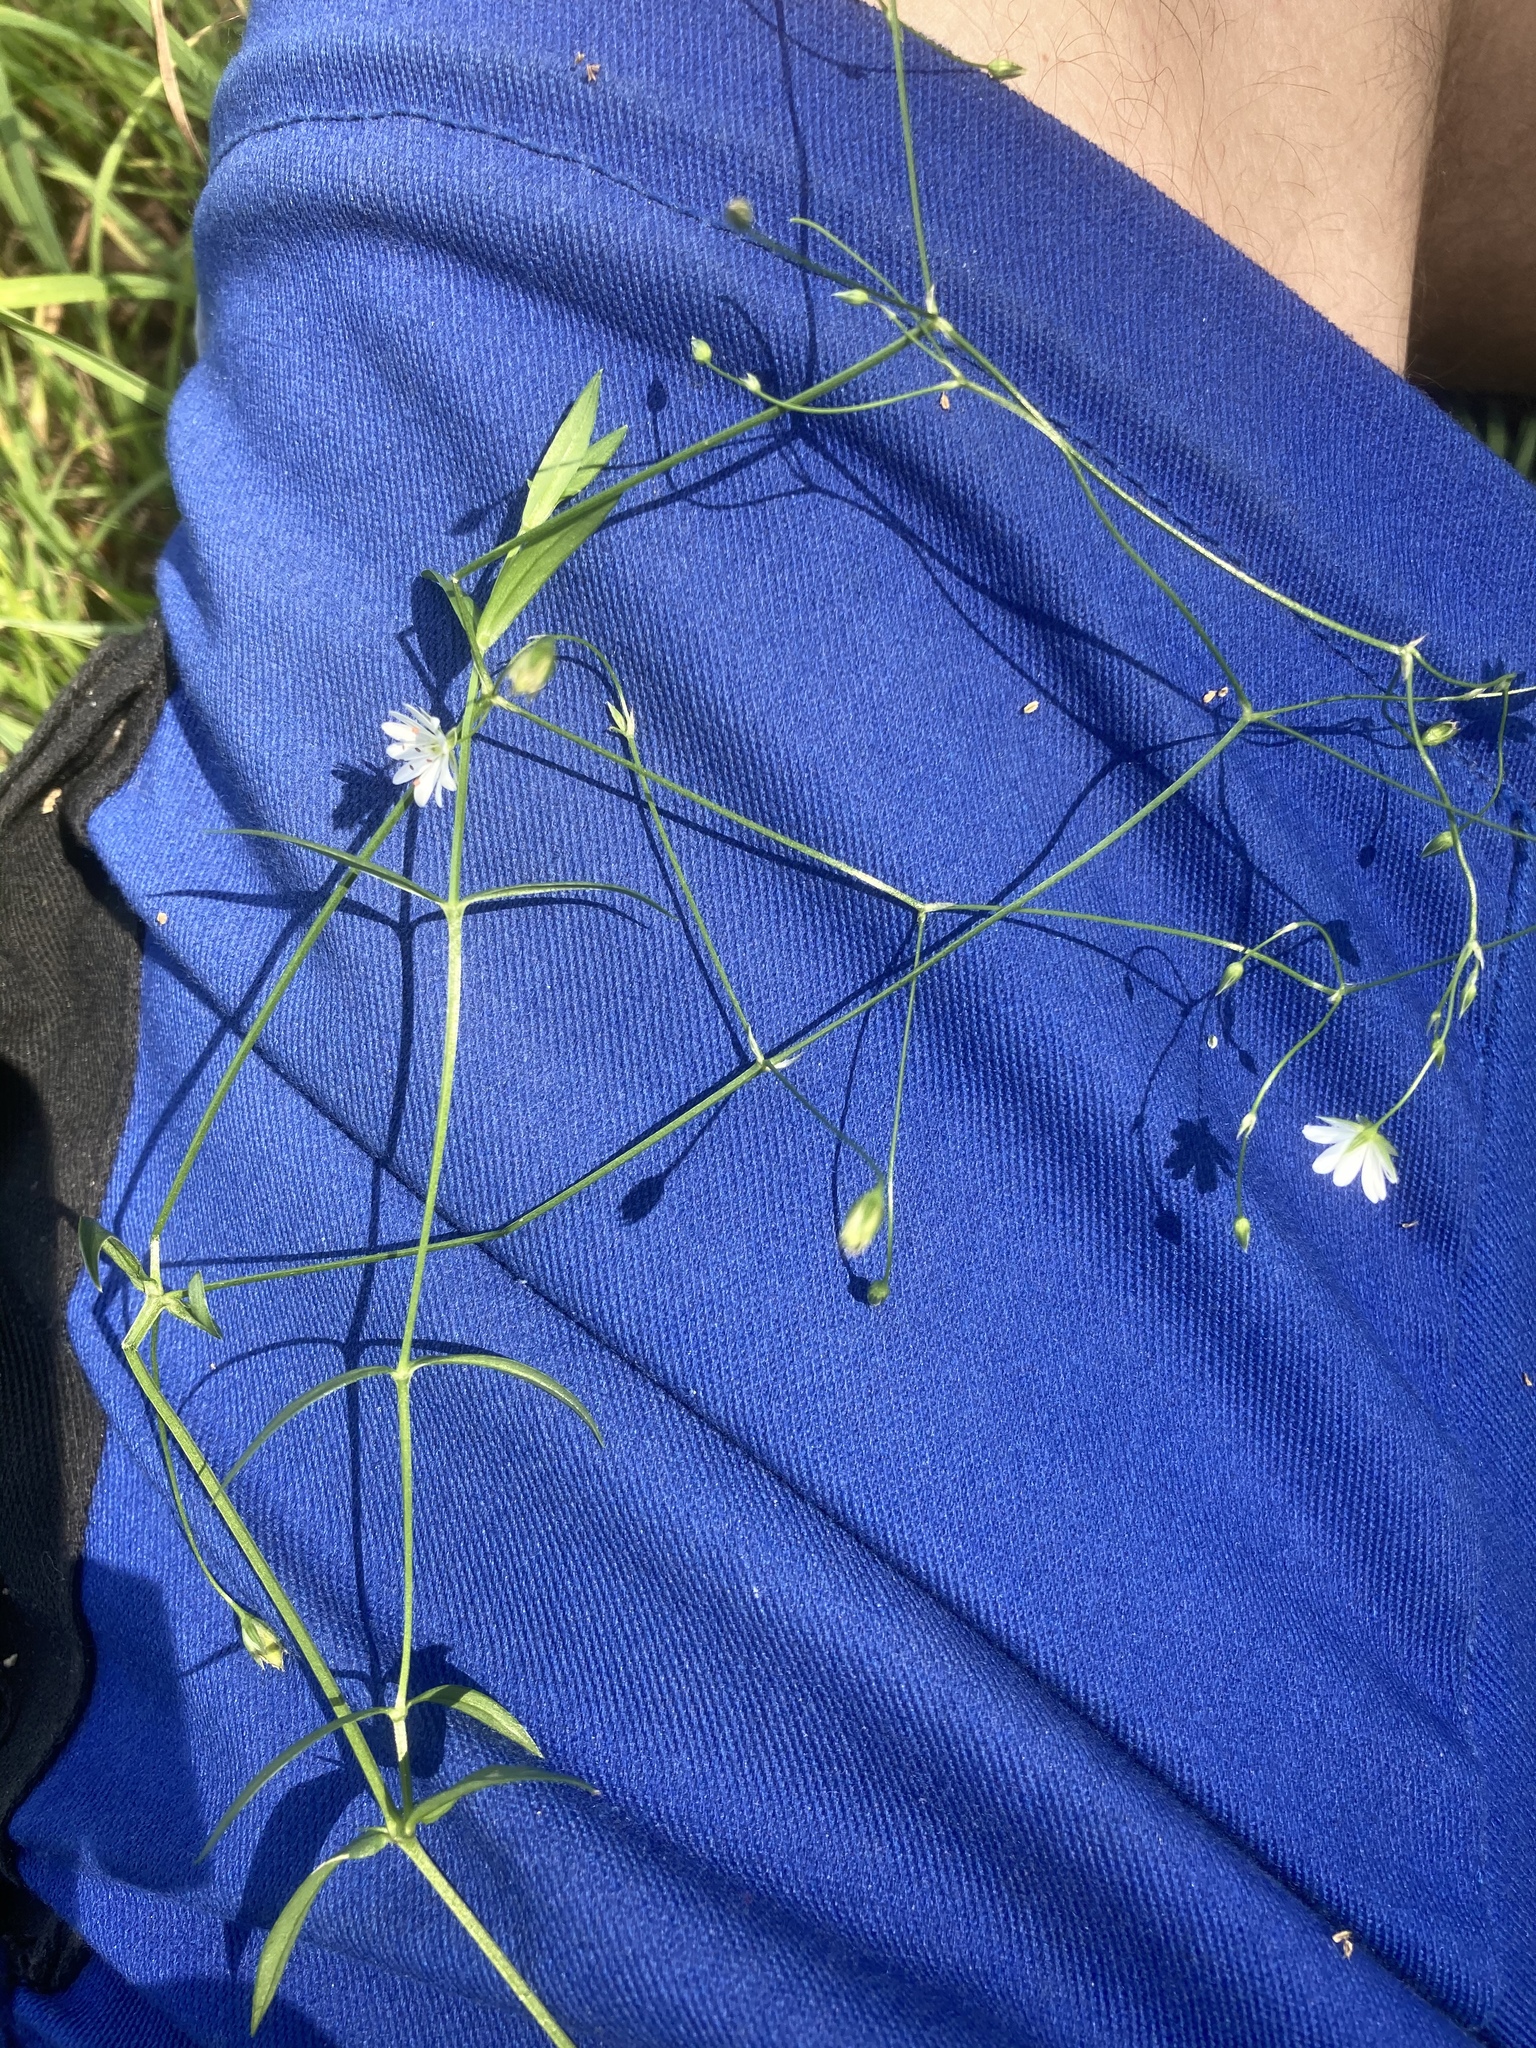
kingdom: Plantae
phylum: Tracheophyta
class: Magnoliopsida
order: Caryophyllales
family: Caryophyllaceae
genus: Stellaria
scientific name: Stellaria graminea
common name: Grass-like starwort
